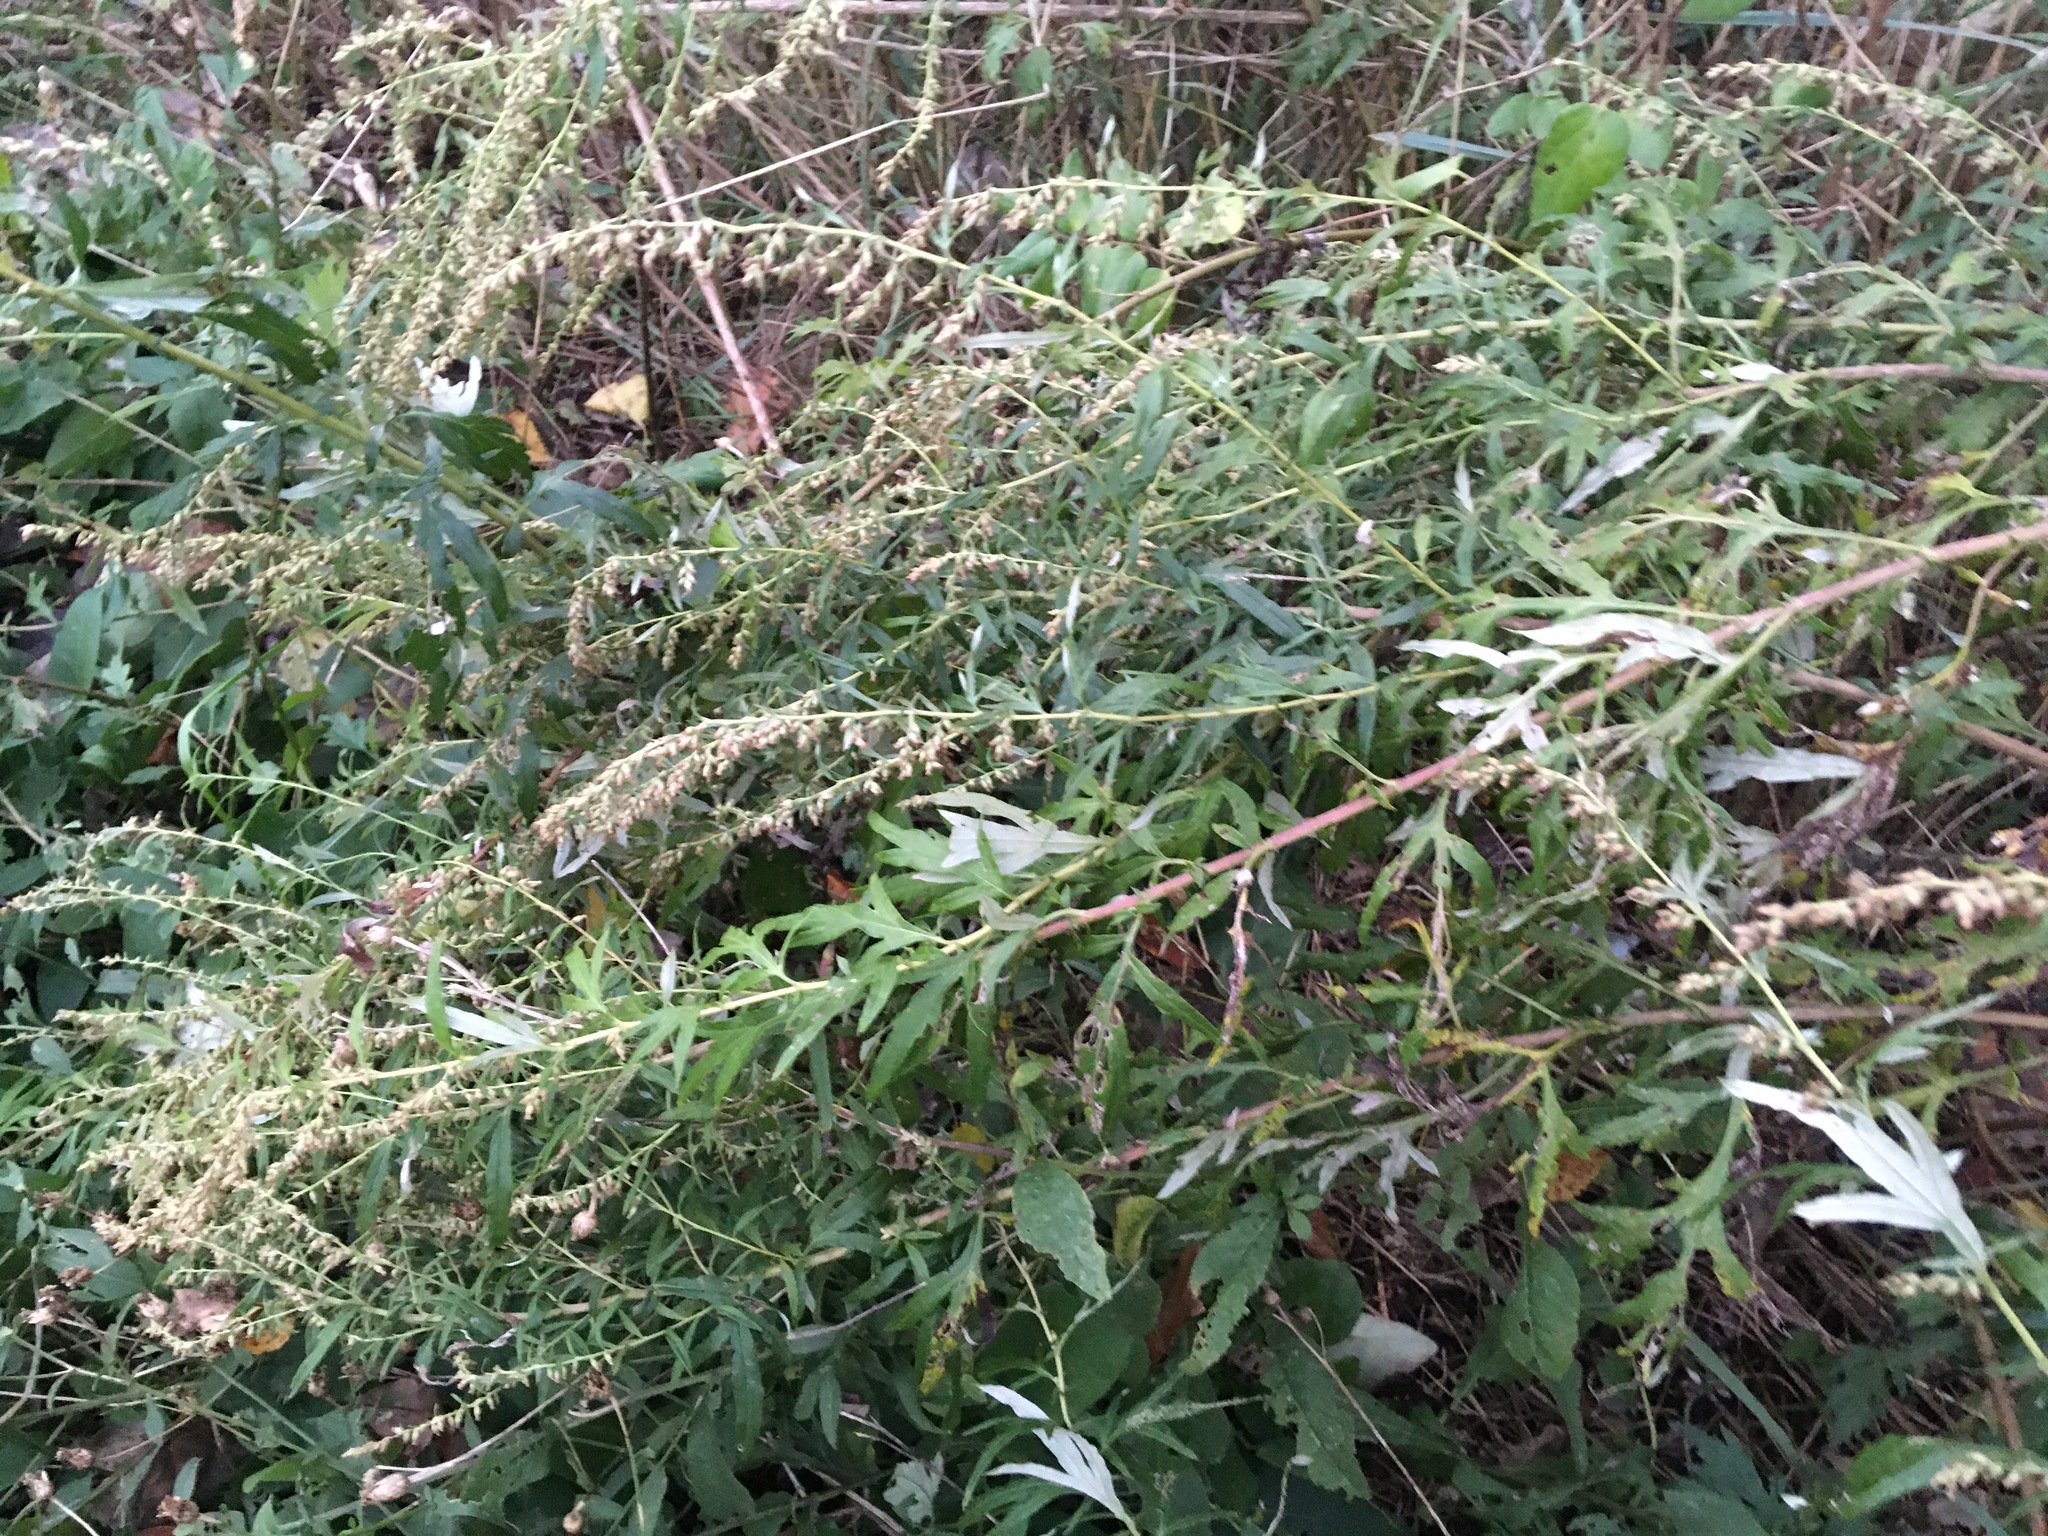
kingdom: Plantae
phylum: Tracheophyta
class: Magnoliopsida
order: Asterales
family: Asteraceae
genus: Artemisia
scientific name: Artemisia vulgaris
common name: Mugwort
